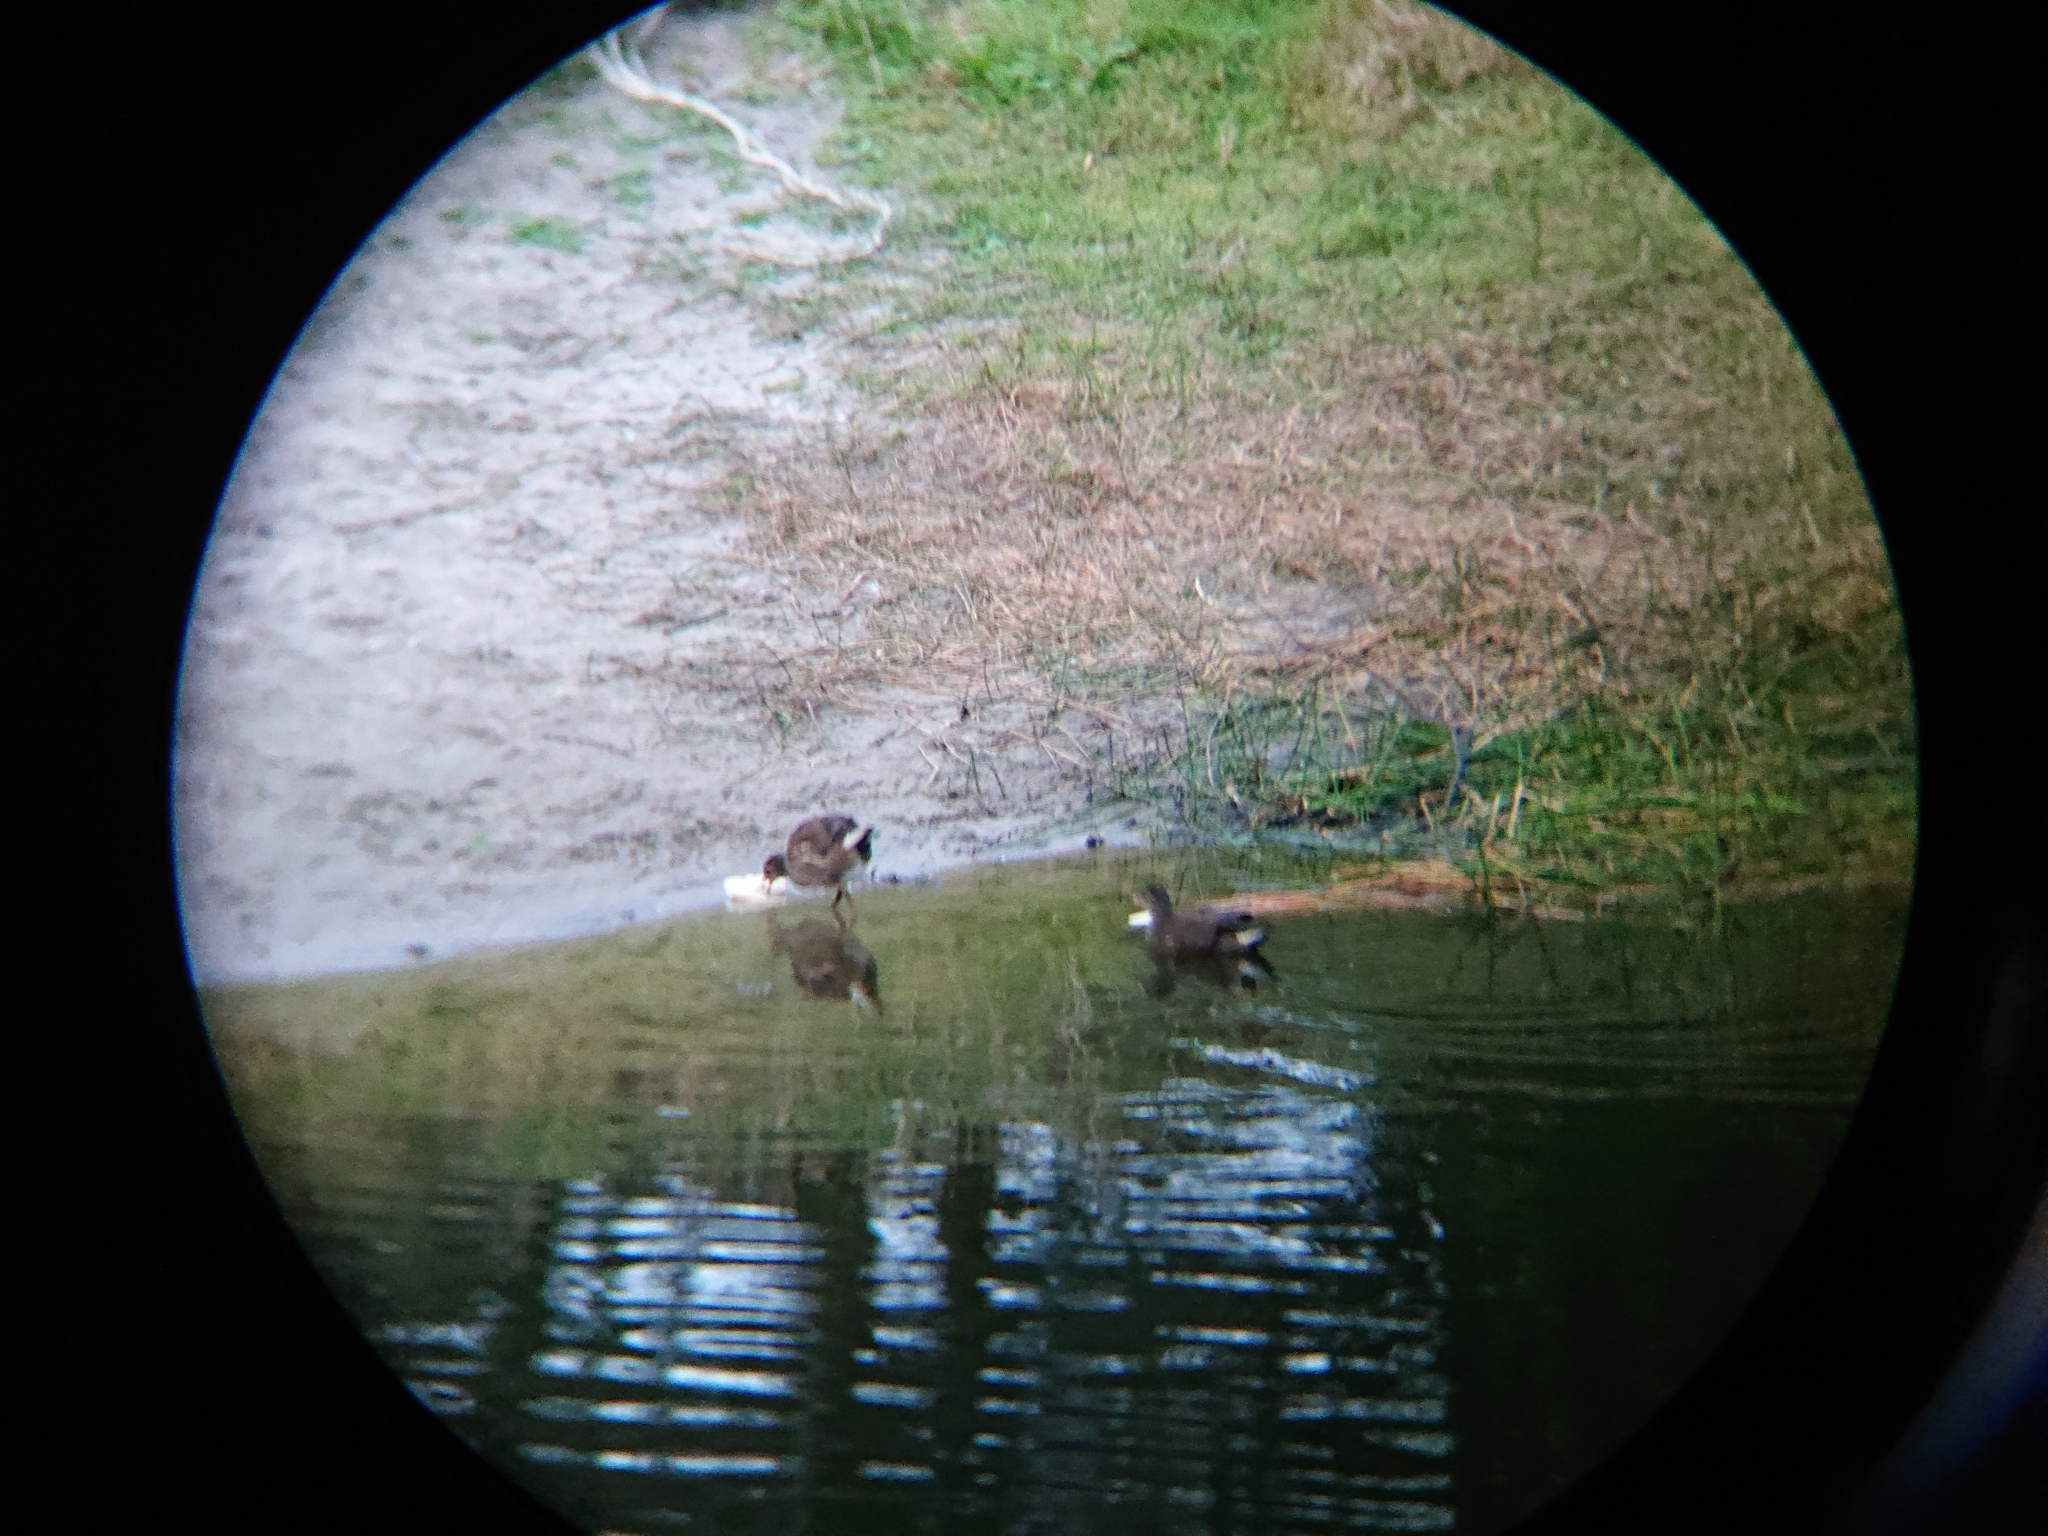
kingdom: Animalia
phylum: Chordata
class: Aves
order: Gruiformes
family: Rallidae
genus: Gallinula
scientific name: Gallinula chloropus
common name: Common moorhen
